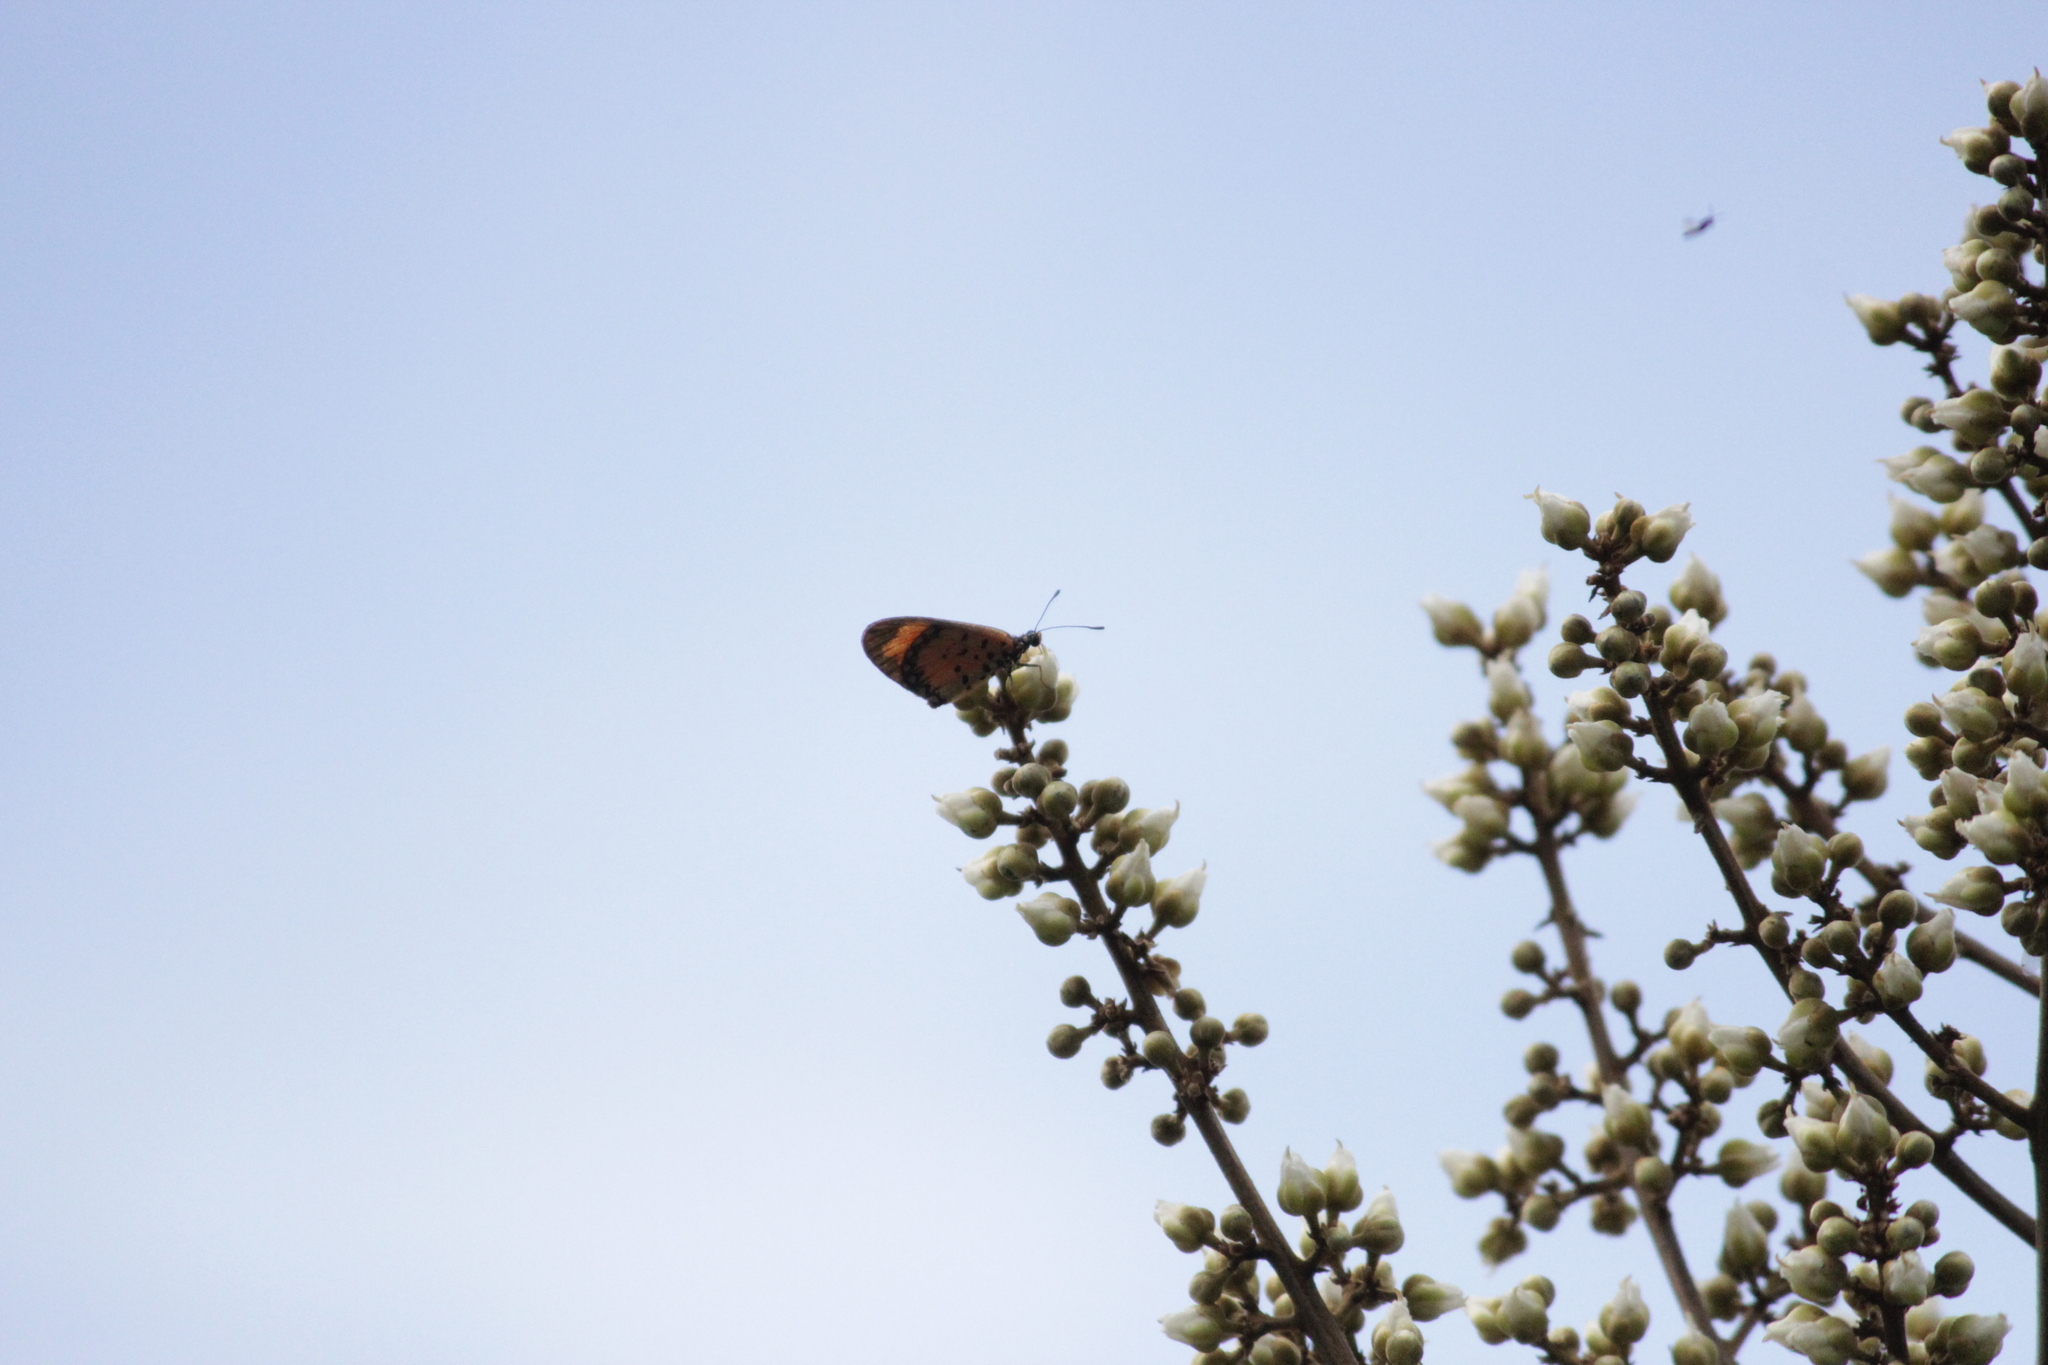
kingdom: Animalia
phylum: Arthropoda
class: Insecta
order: Lepidoptera
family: Nymphalidae
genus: Acraea
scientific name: Acraea Telchinia serena
